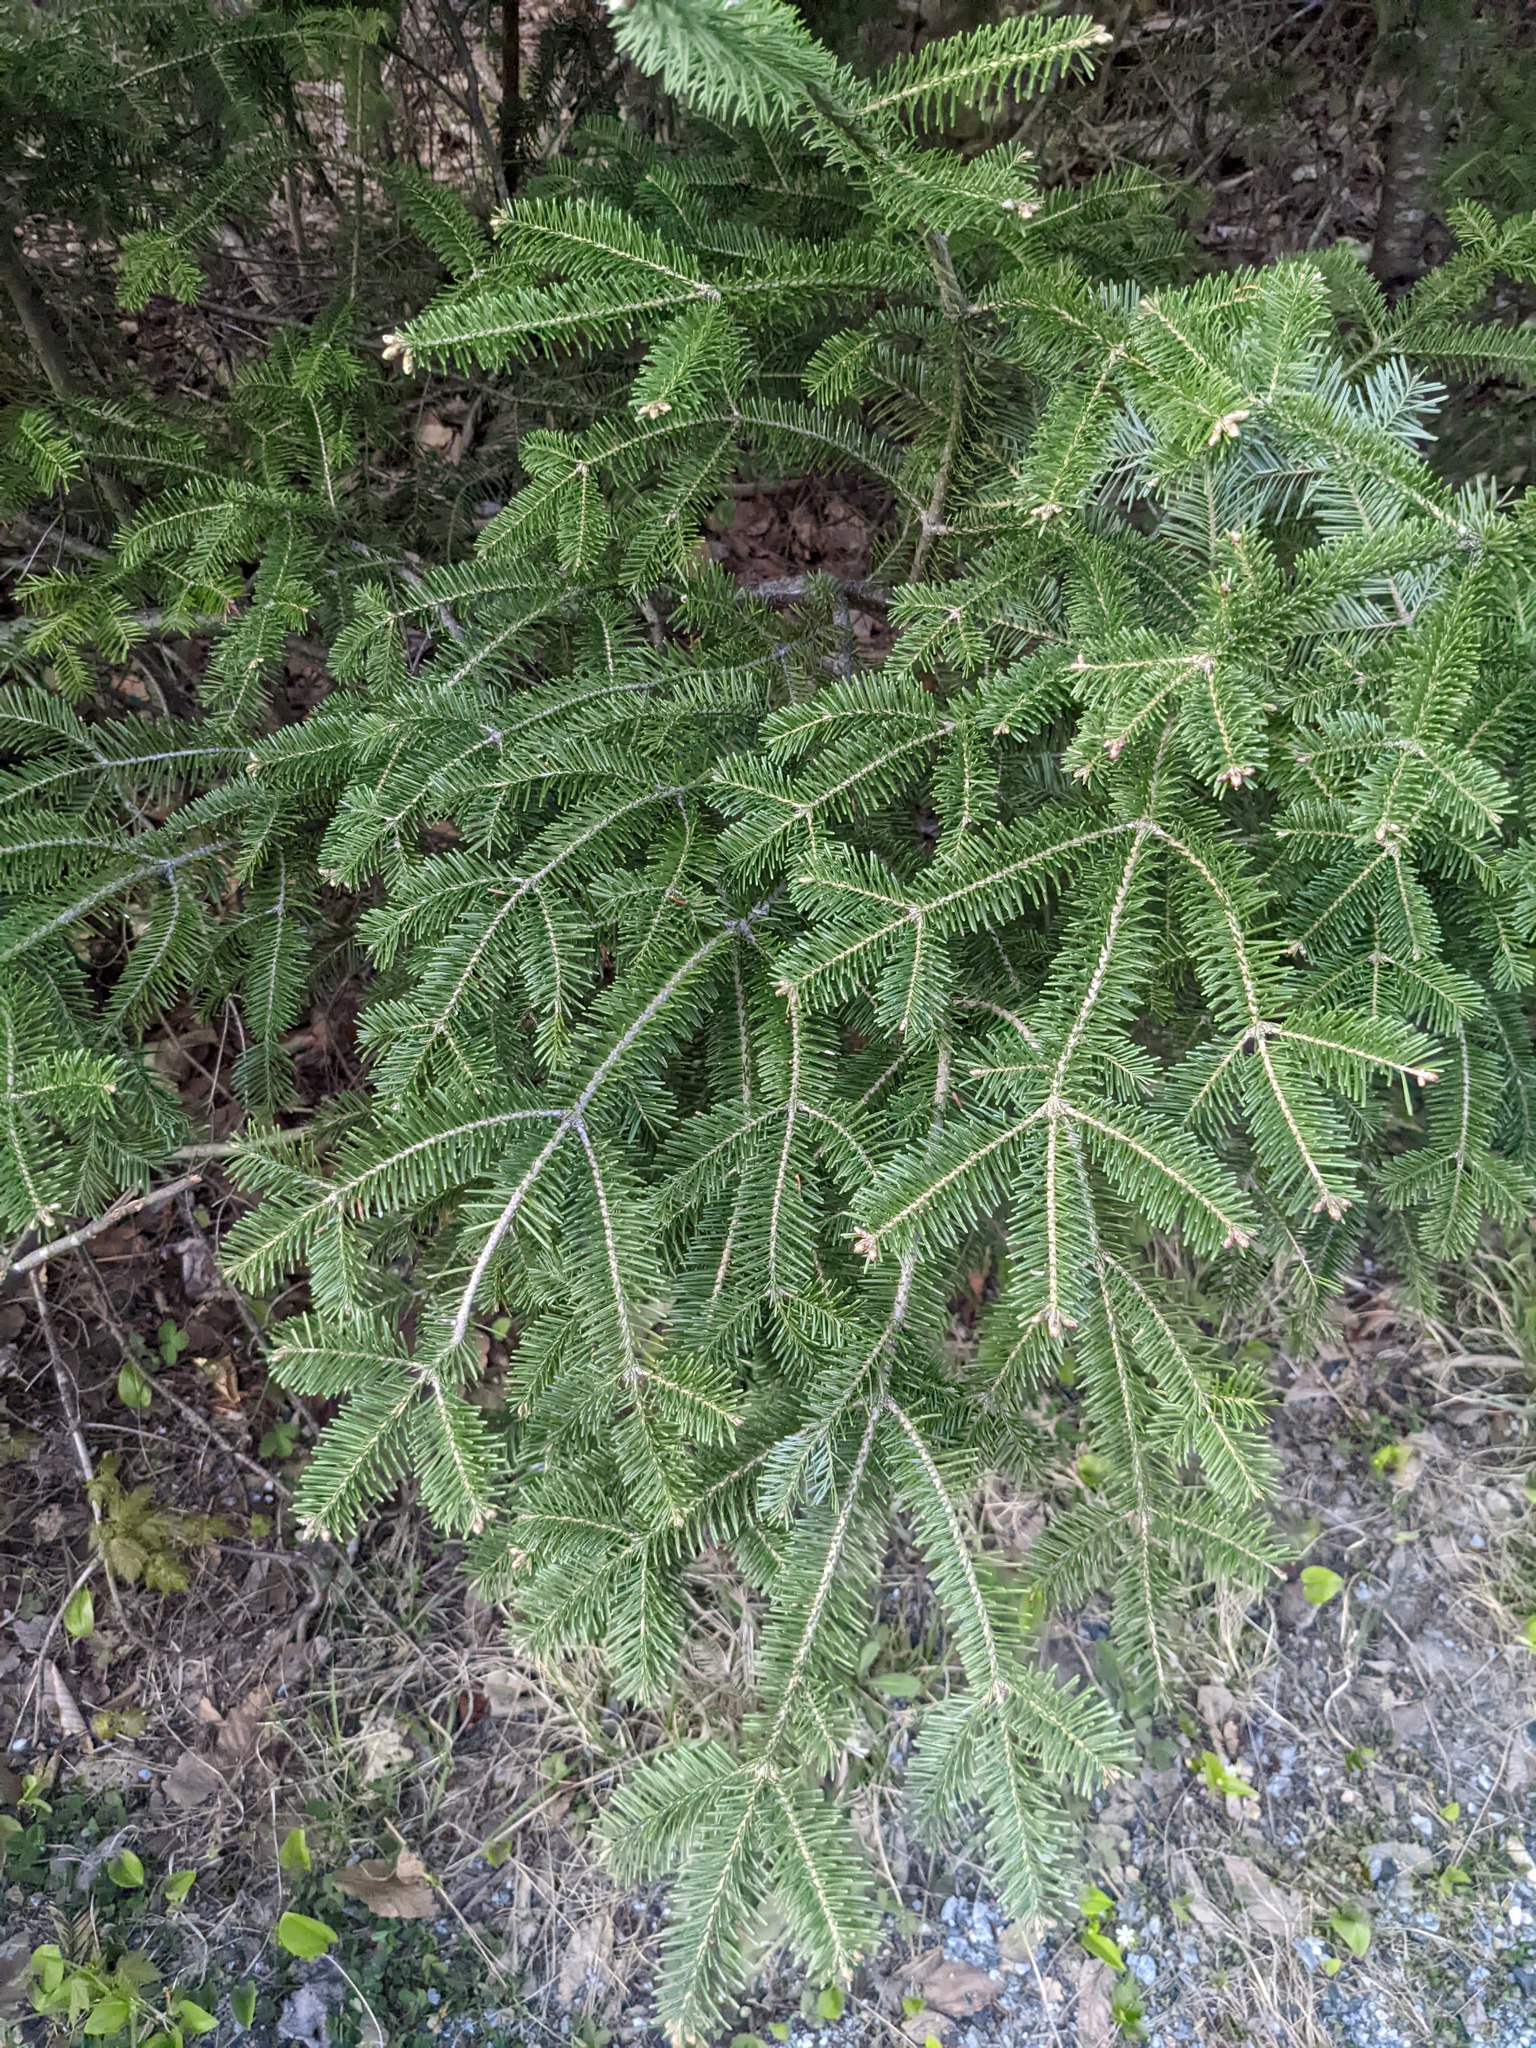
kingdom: Plantae
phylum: Tracheophyta
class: Pinopsida
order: Pinales
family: Pinaceae
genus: Abies
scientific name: Abies balsamea
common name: Balsam fir
